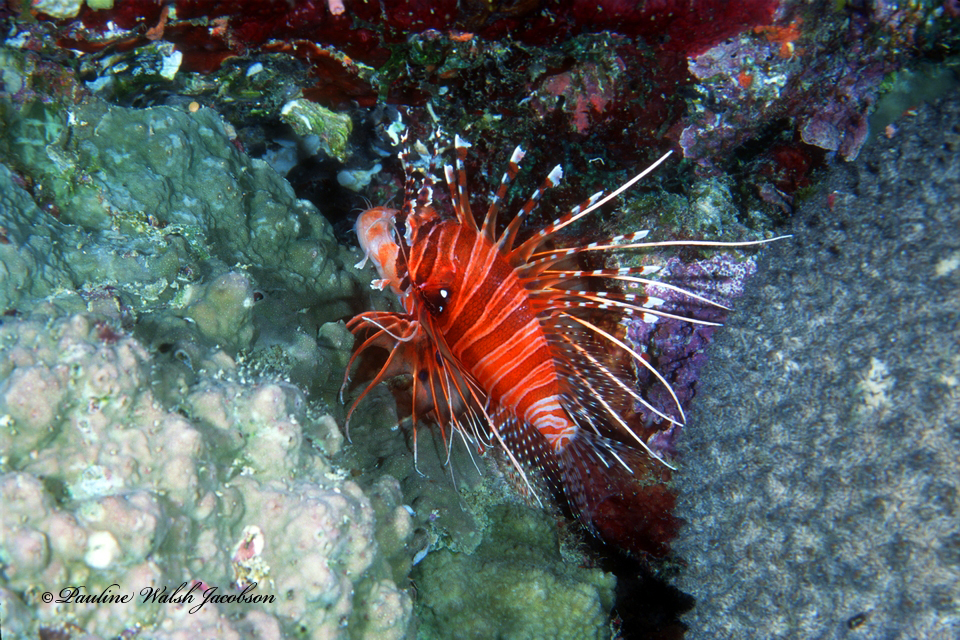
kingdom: Animalia
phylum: Chordata
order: Scorpaeniformes
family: Scorpaenidae
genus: Pterois
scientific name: Pterois antennata
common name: Spotfin lionfish
